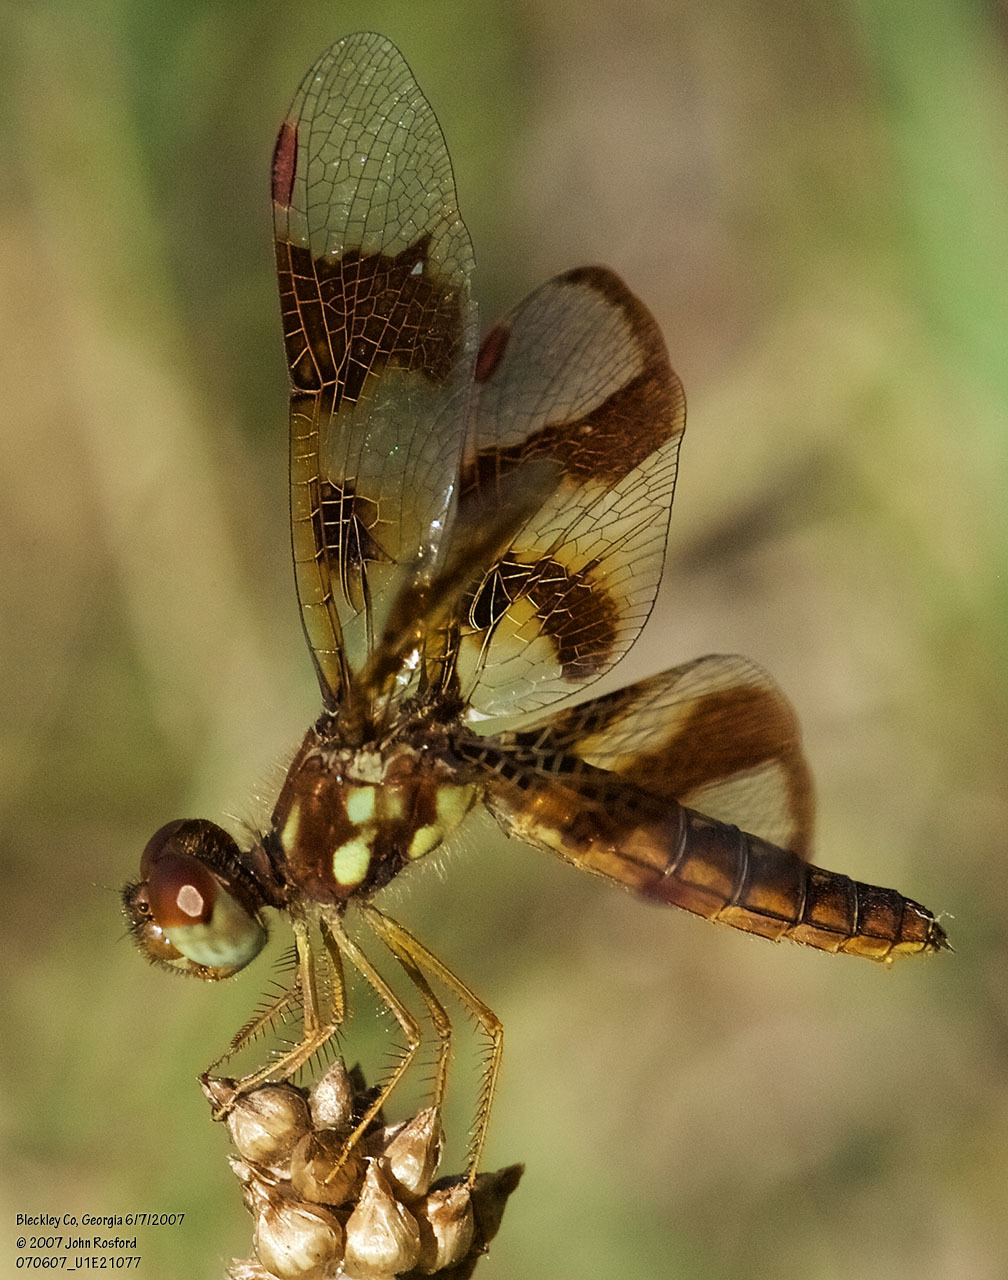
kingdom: Animalia
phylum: Arthropoda
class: Insecta
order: Odonata
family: Libellulidae
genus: Perithemis
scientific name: Perithemis tenera
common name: Eastern amberwing
